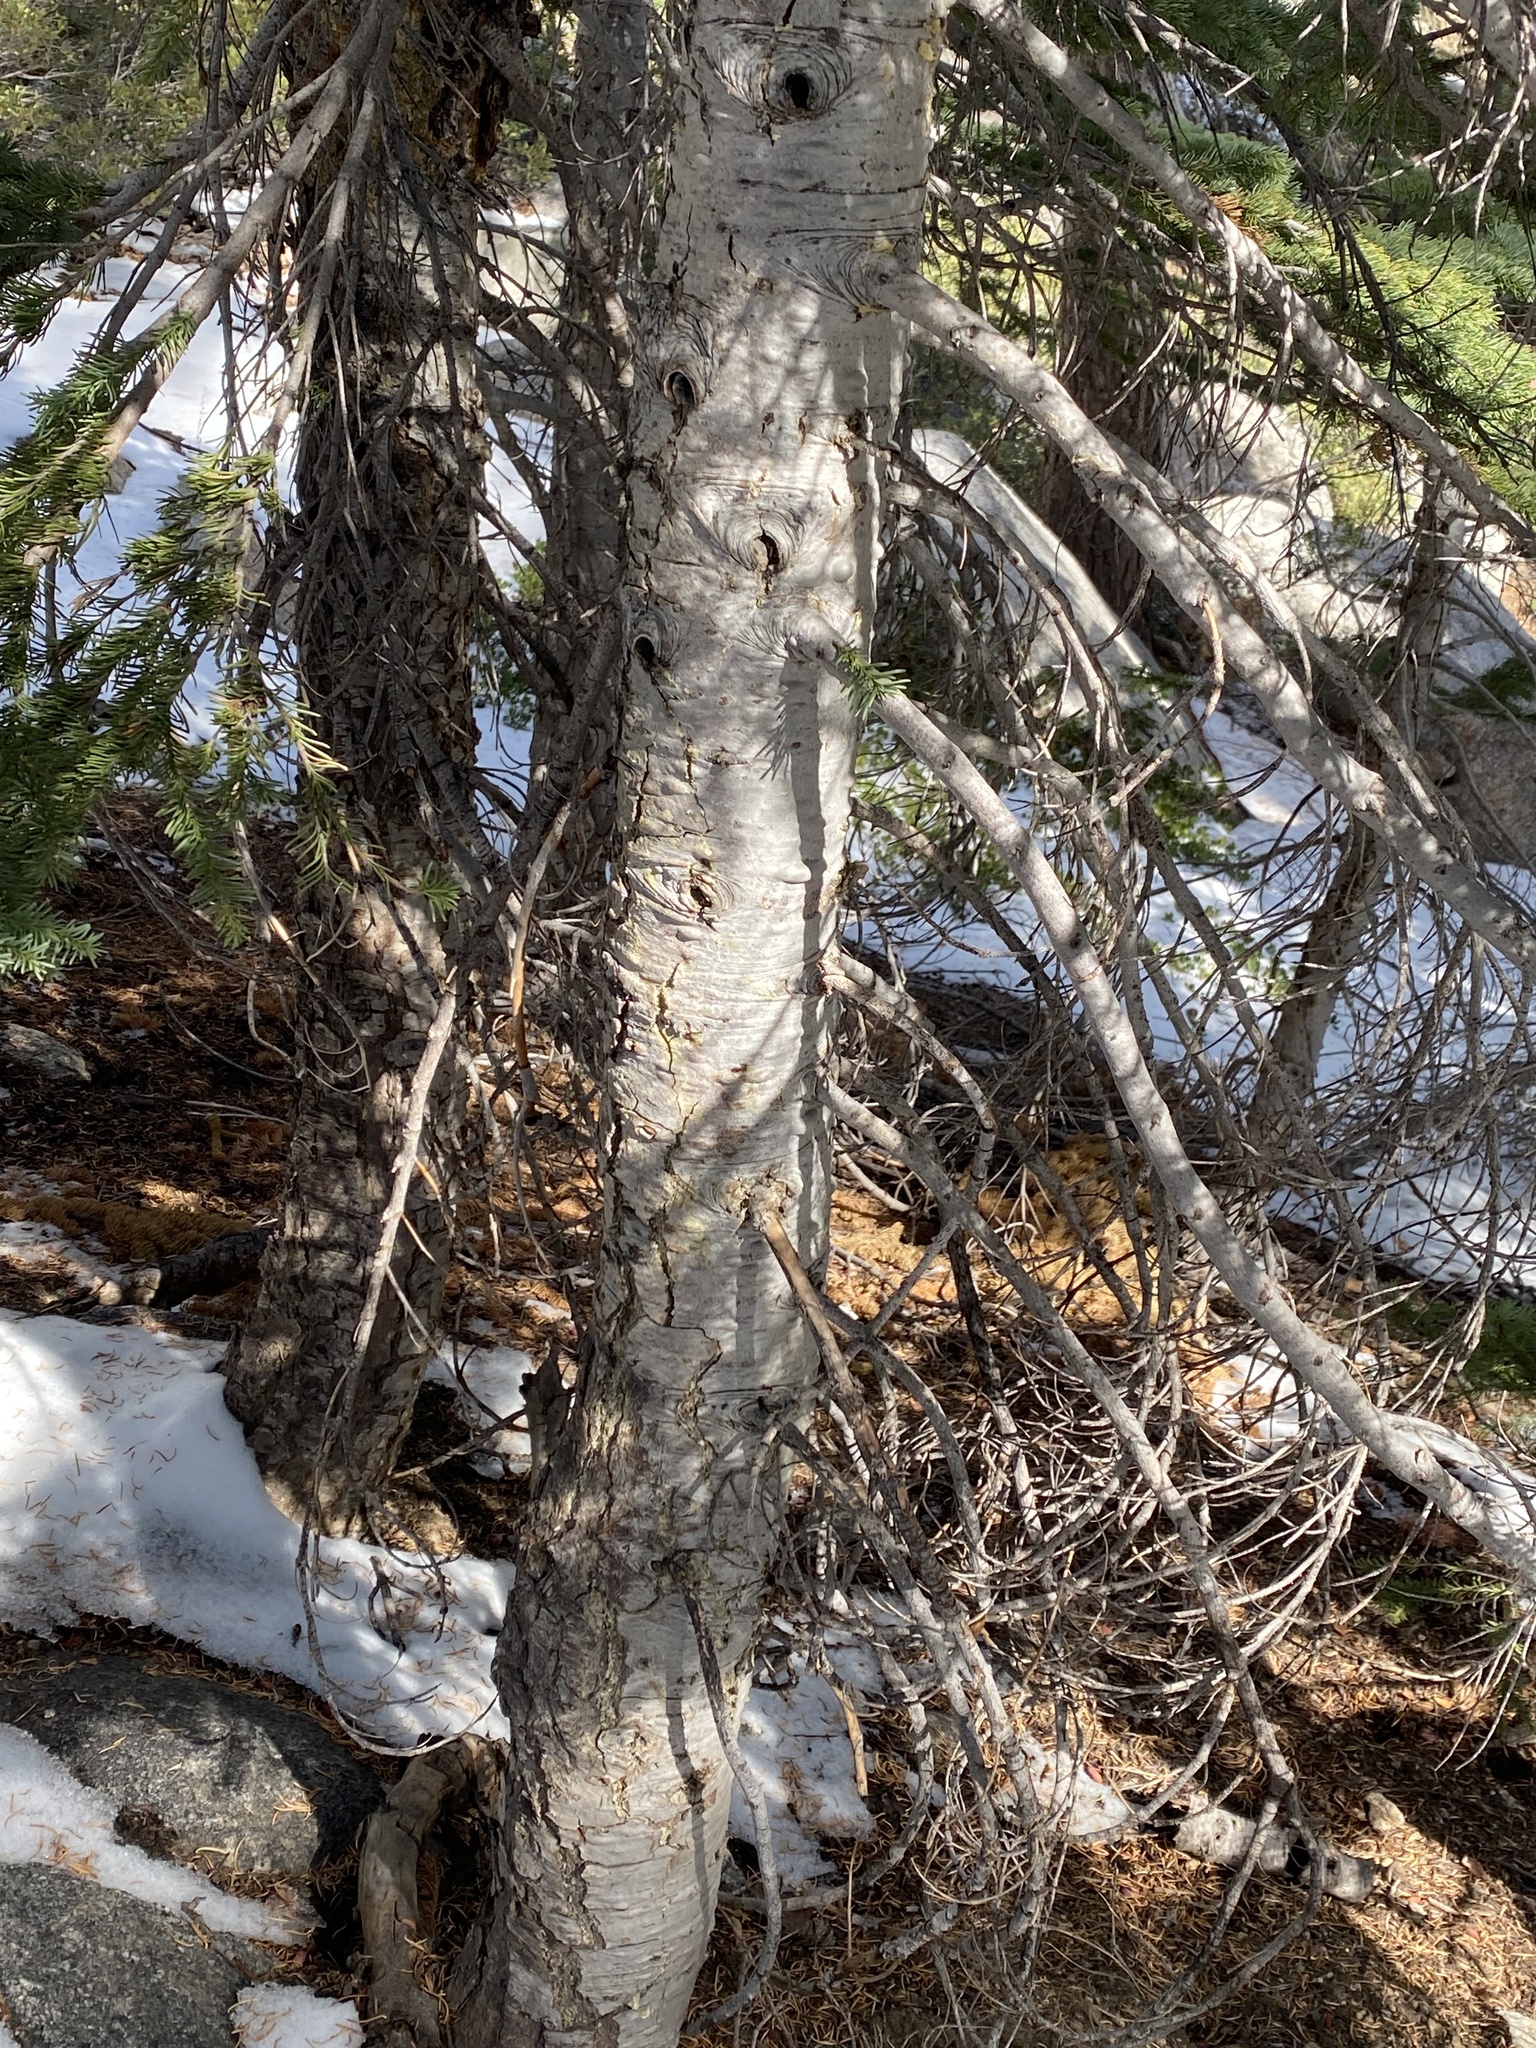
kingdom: Plantae
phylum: Tracheophyta
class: Pinopsida
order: Pinales
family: Pinaceae
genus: Abies
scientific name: Abies magnifica bis
